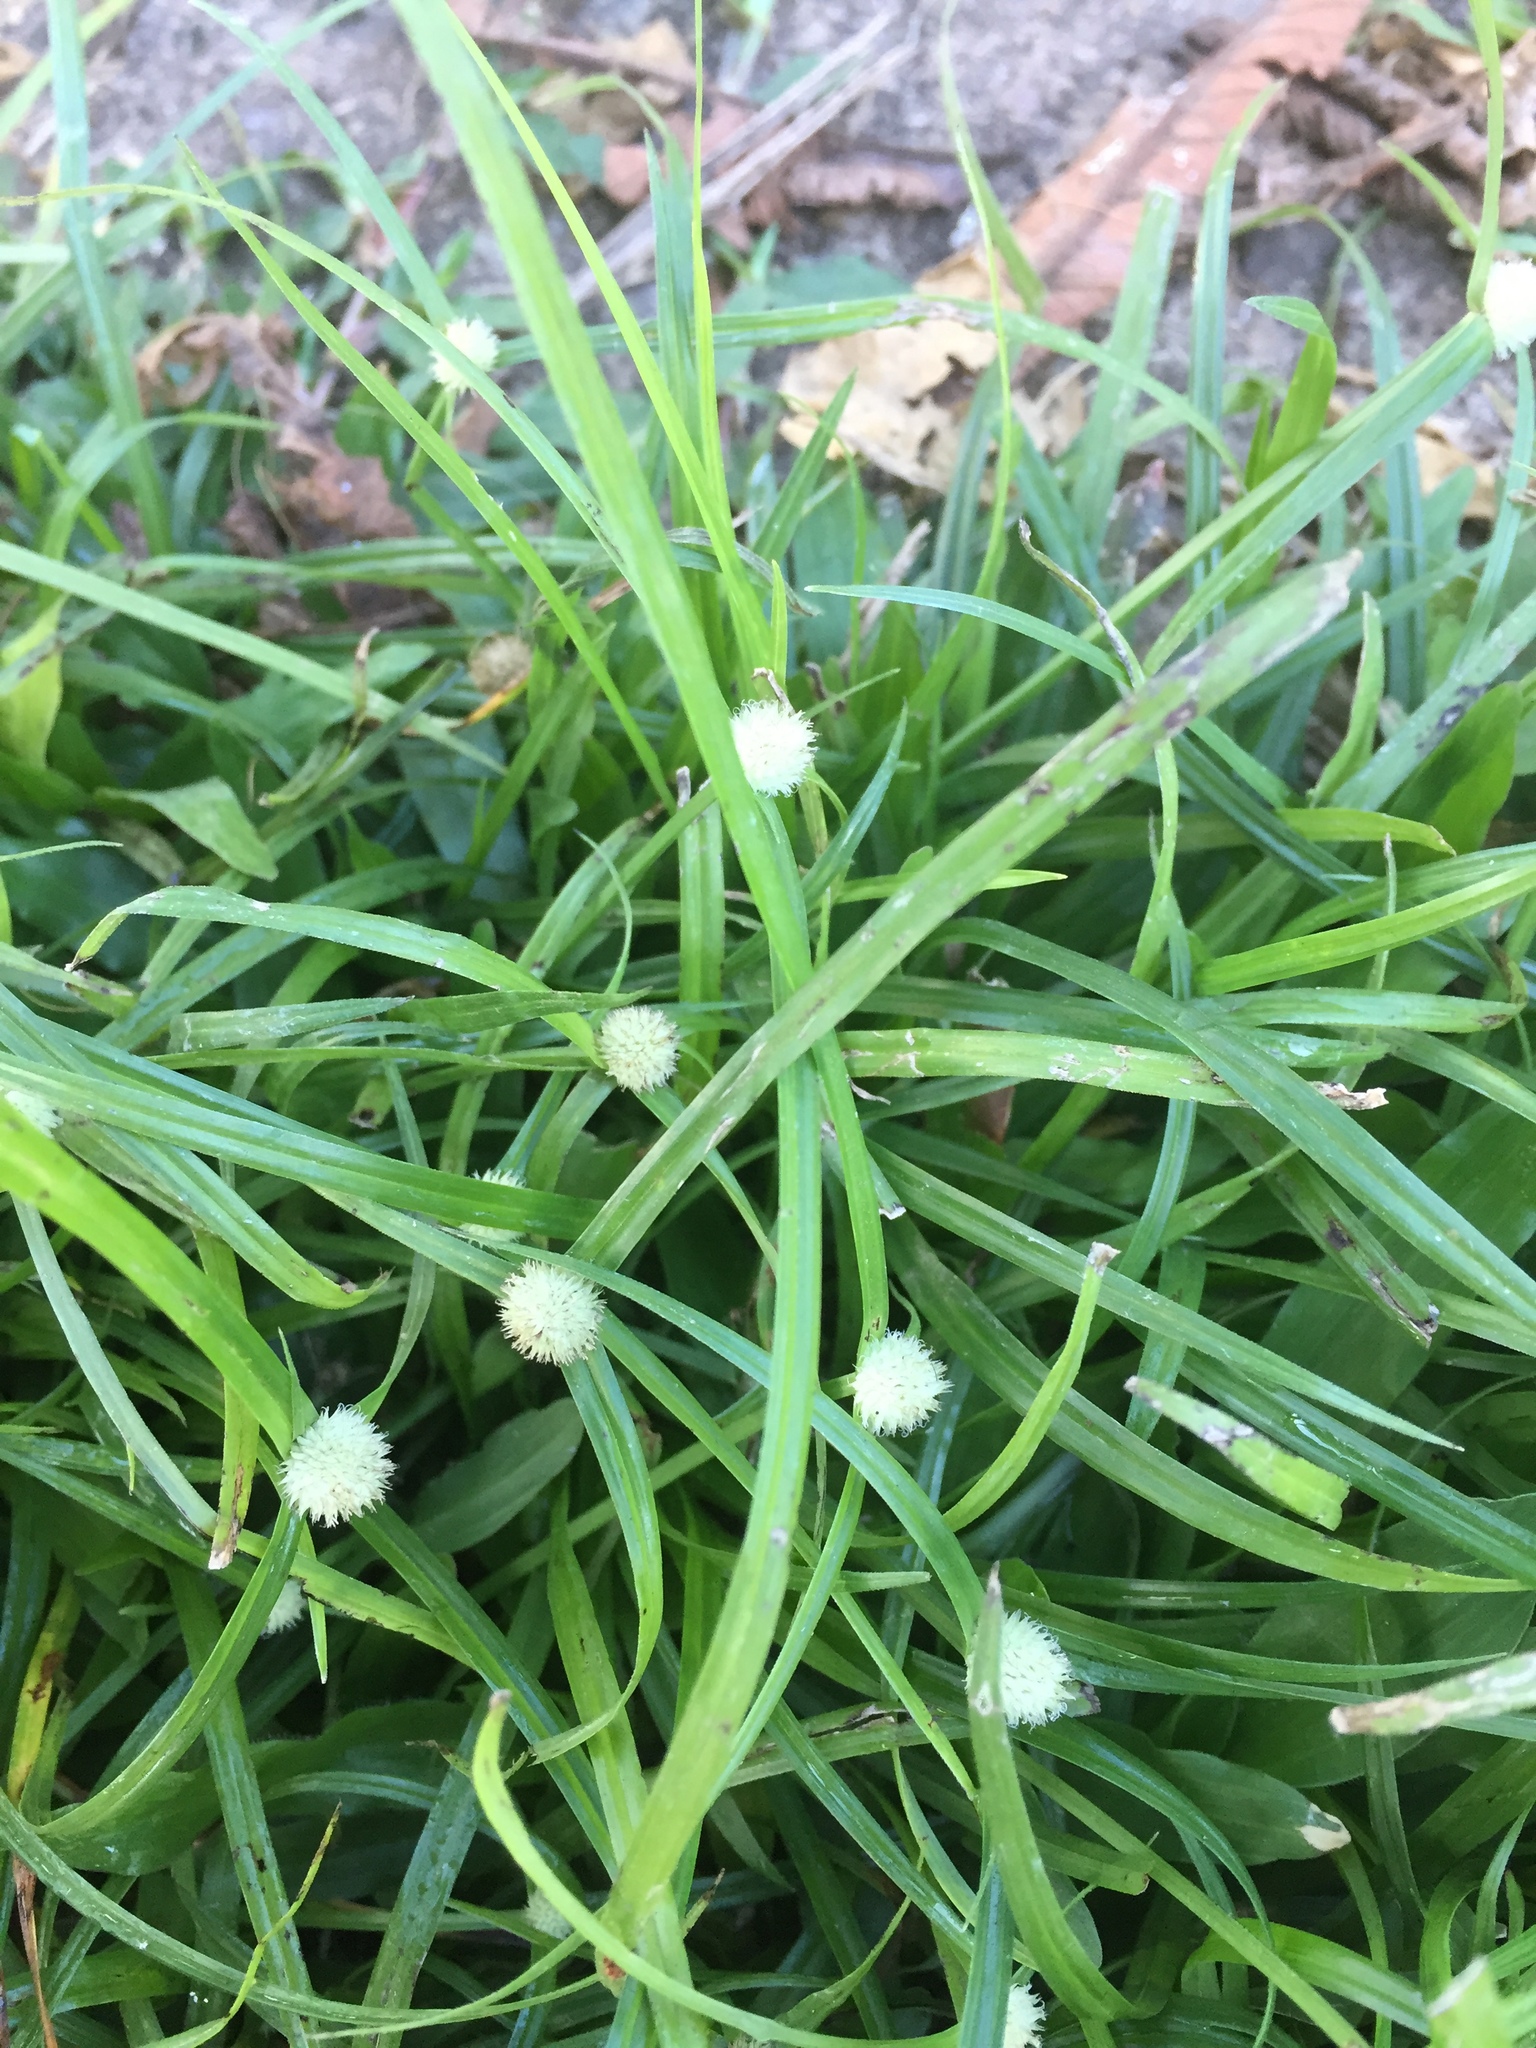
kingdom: Plantae
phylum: Tracheophyta
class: Liliopsida
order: Poales
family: Cyperaceae
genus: Cyperus
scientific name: Cyperus mindorensis
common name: Flatsedge
